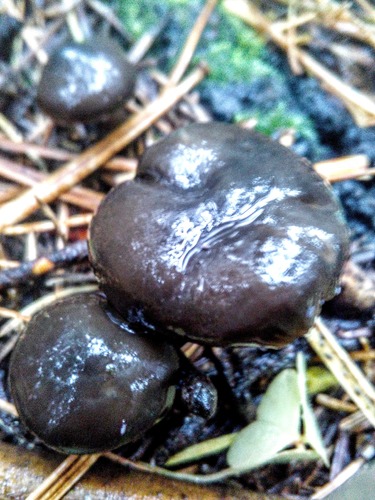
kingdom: Fungi
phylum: Basidiomycota
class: Agaricomycetes
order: Russulales
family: Russulaceae
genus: Lactarius
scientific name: Lactarius lignyotus
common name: Velvet milkcap
